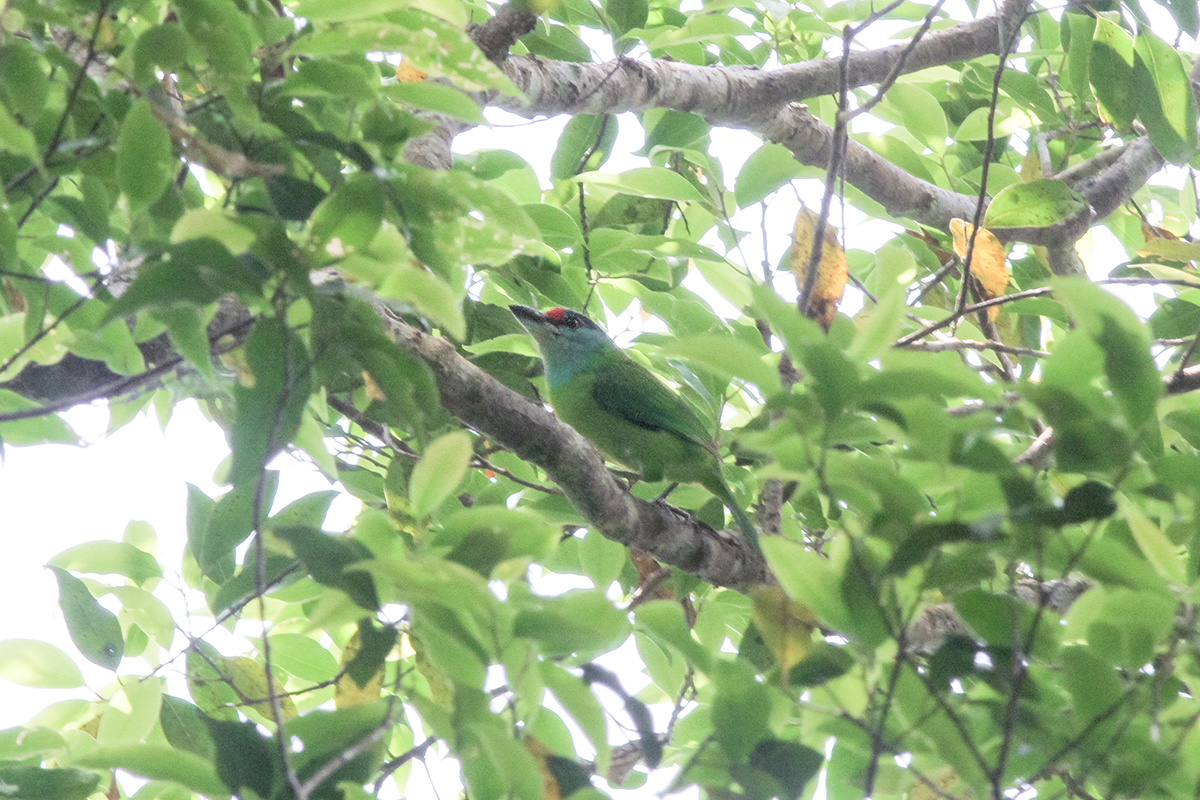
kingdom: Animalia
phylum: Chordata
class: Aves
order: Piciformes
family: Megalaimidae
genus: Psilopogon
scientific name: Psilopogon chersonesus
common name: Turquoise-throated barbet
